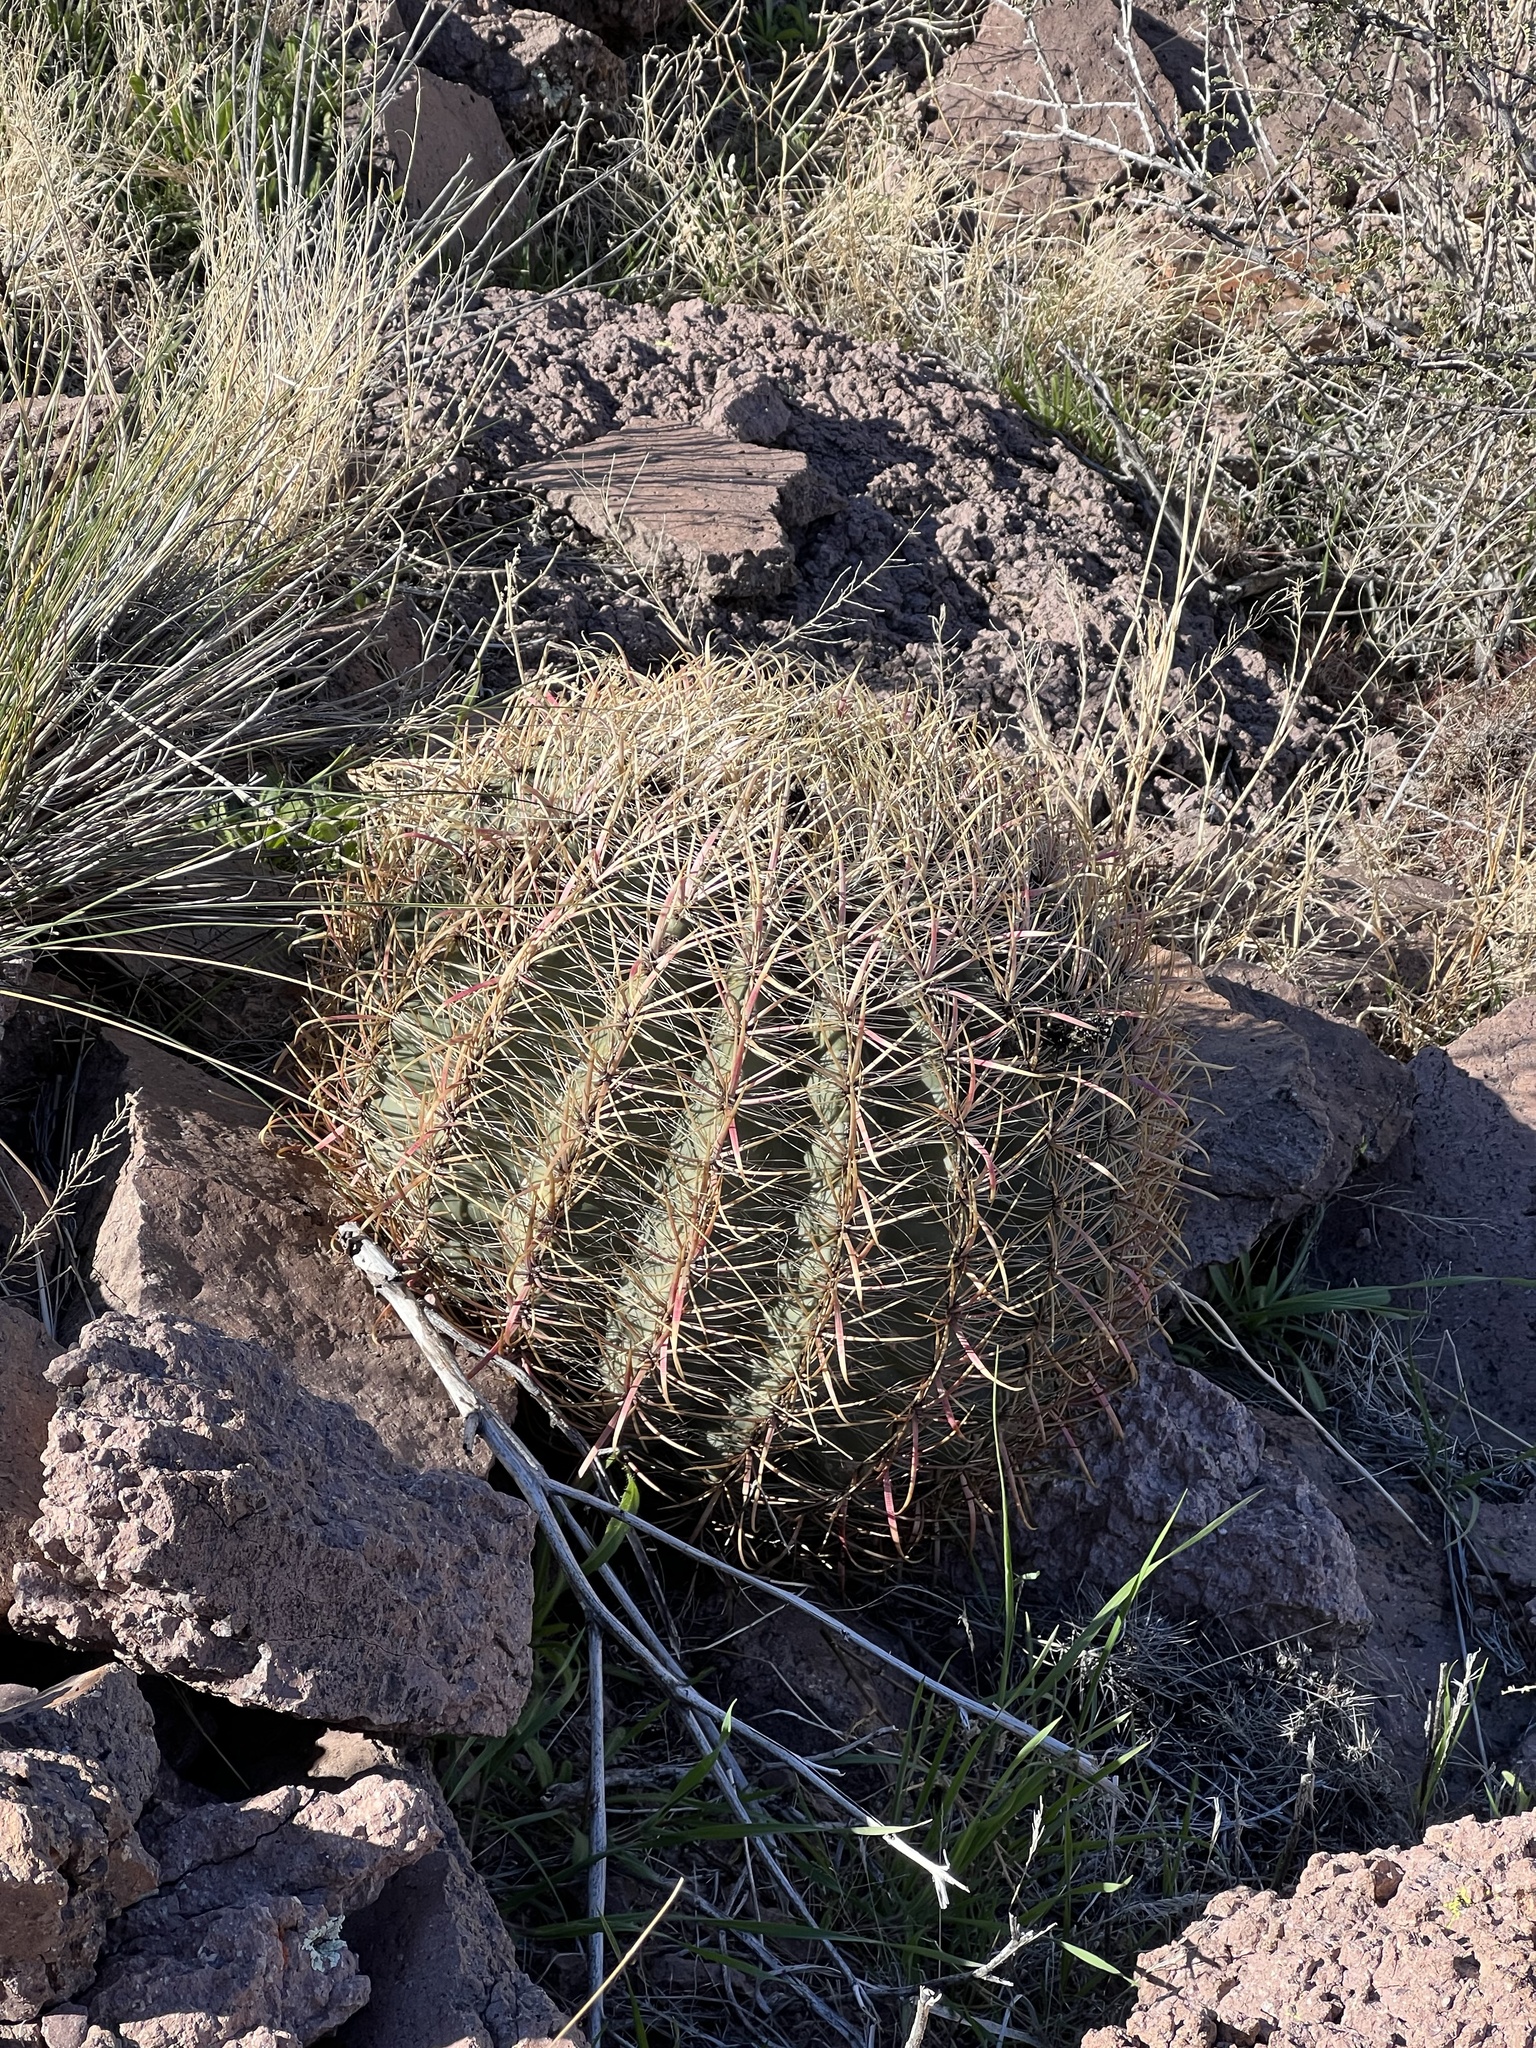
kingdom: Plantae
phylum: Tracheophyta
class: Magnoliopsida
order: Caryophyllales
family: Cactaceae
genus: Ferocactus
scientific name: Ferocactus cylindraceus
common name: California barrel cactus
